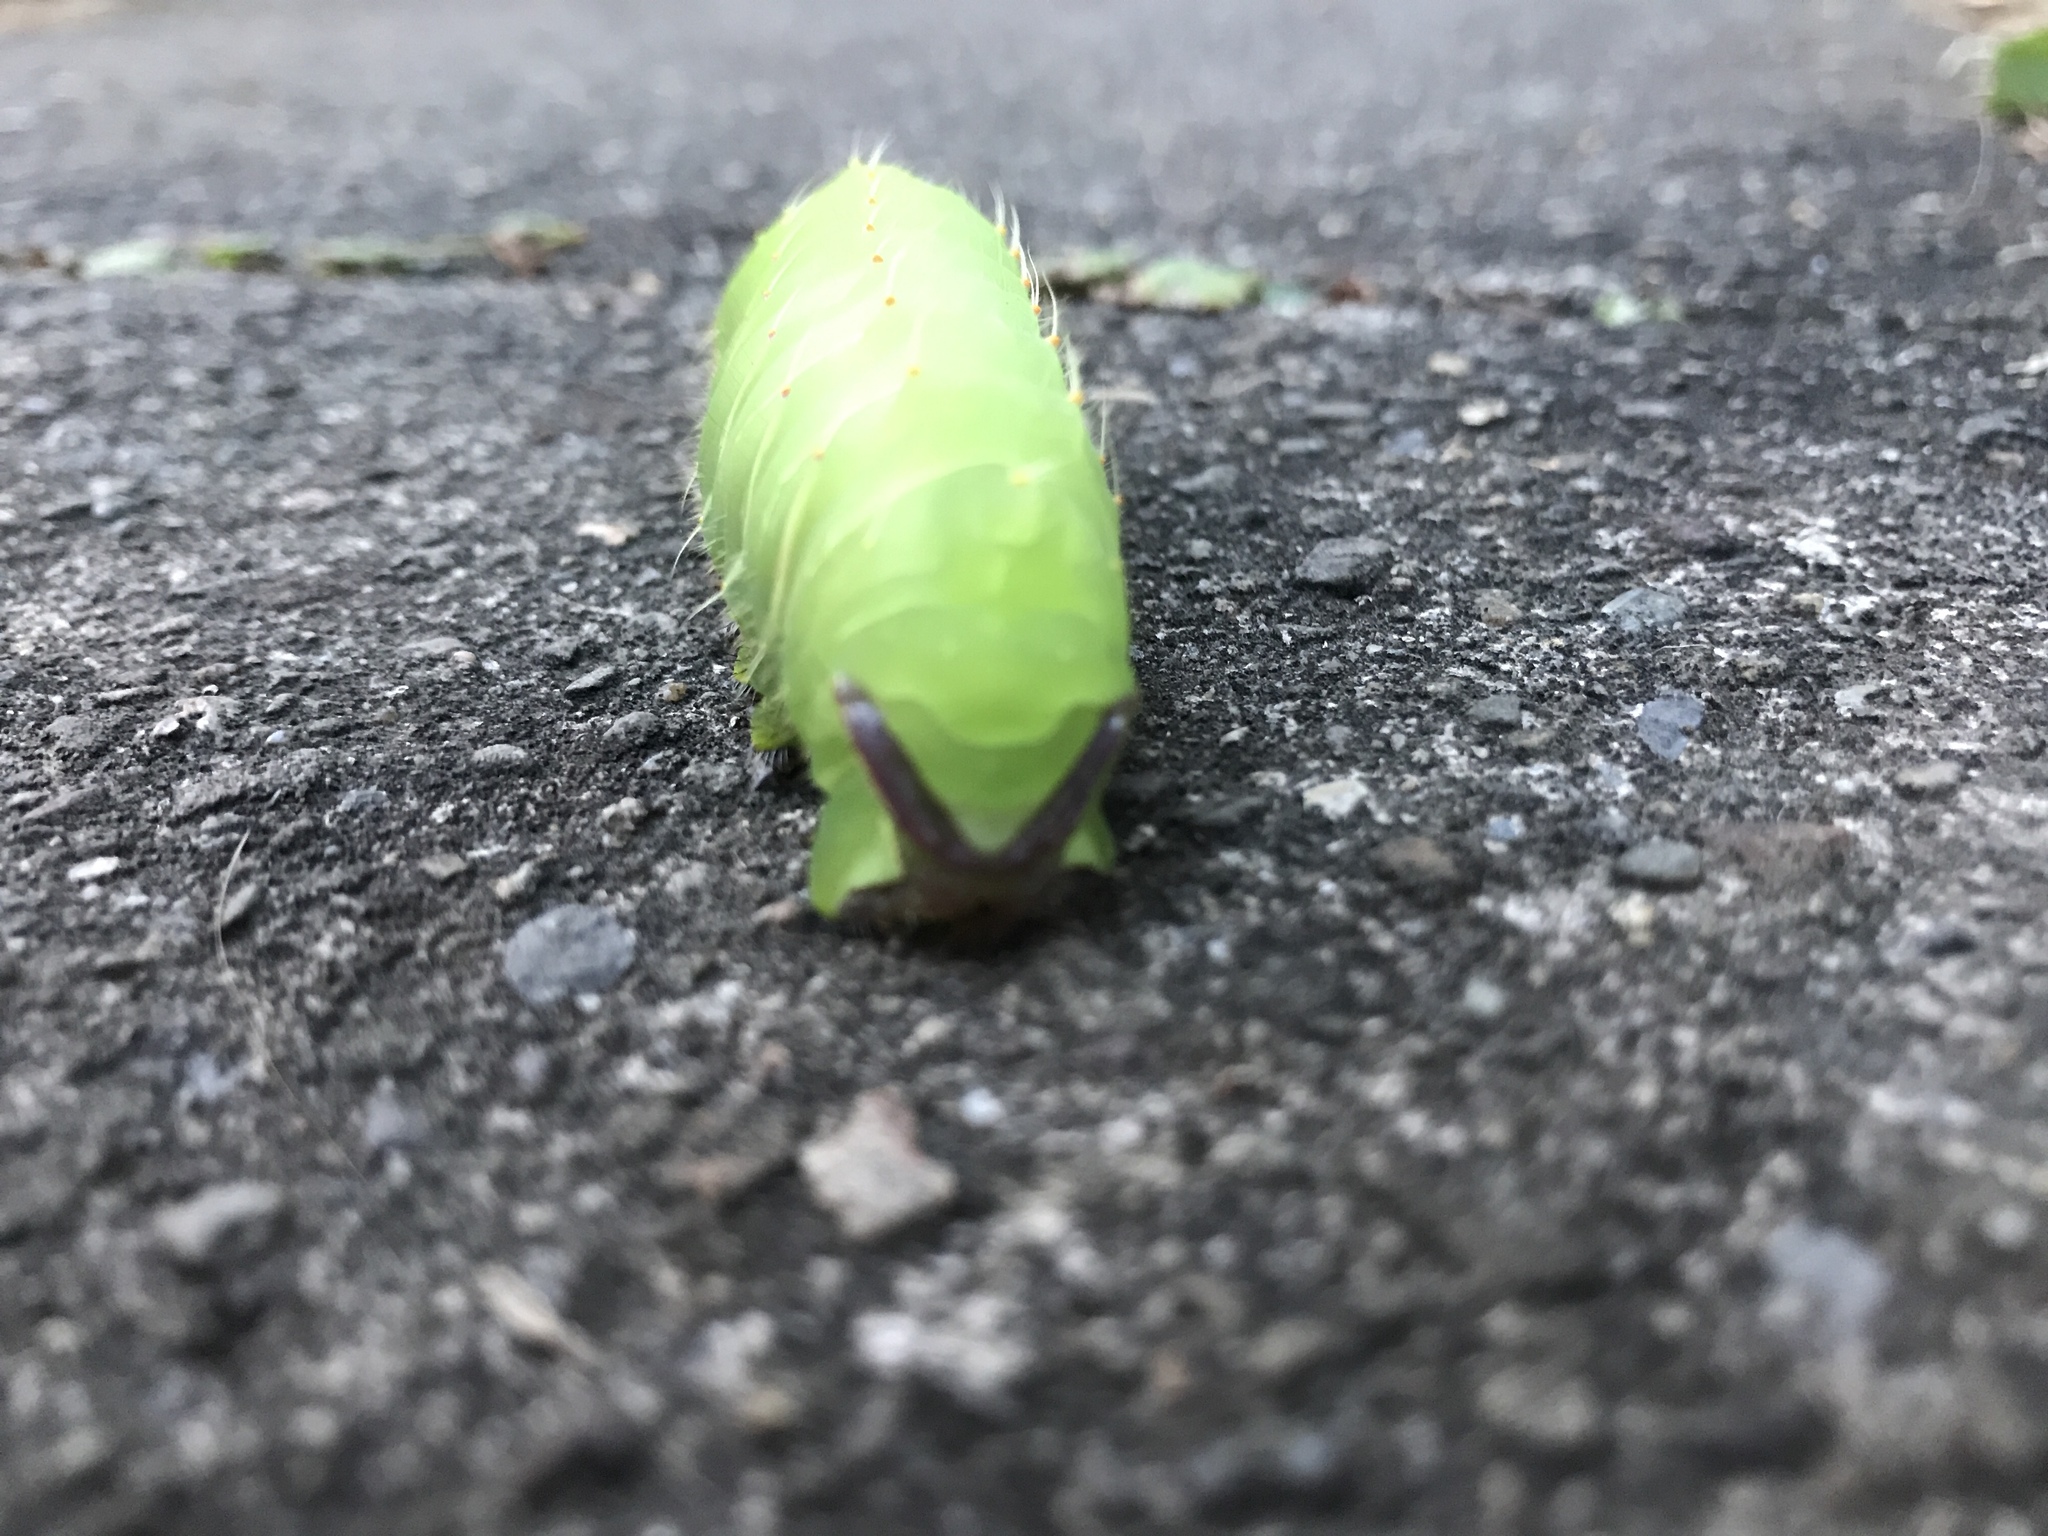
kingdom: Animalia
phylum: Arthropoda
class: Insecta
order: Lepidoptera
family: Saturniidae
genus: Antheraea
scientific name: Antheraea polyphemus
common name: Polyphemus moth
